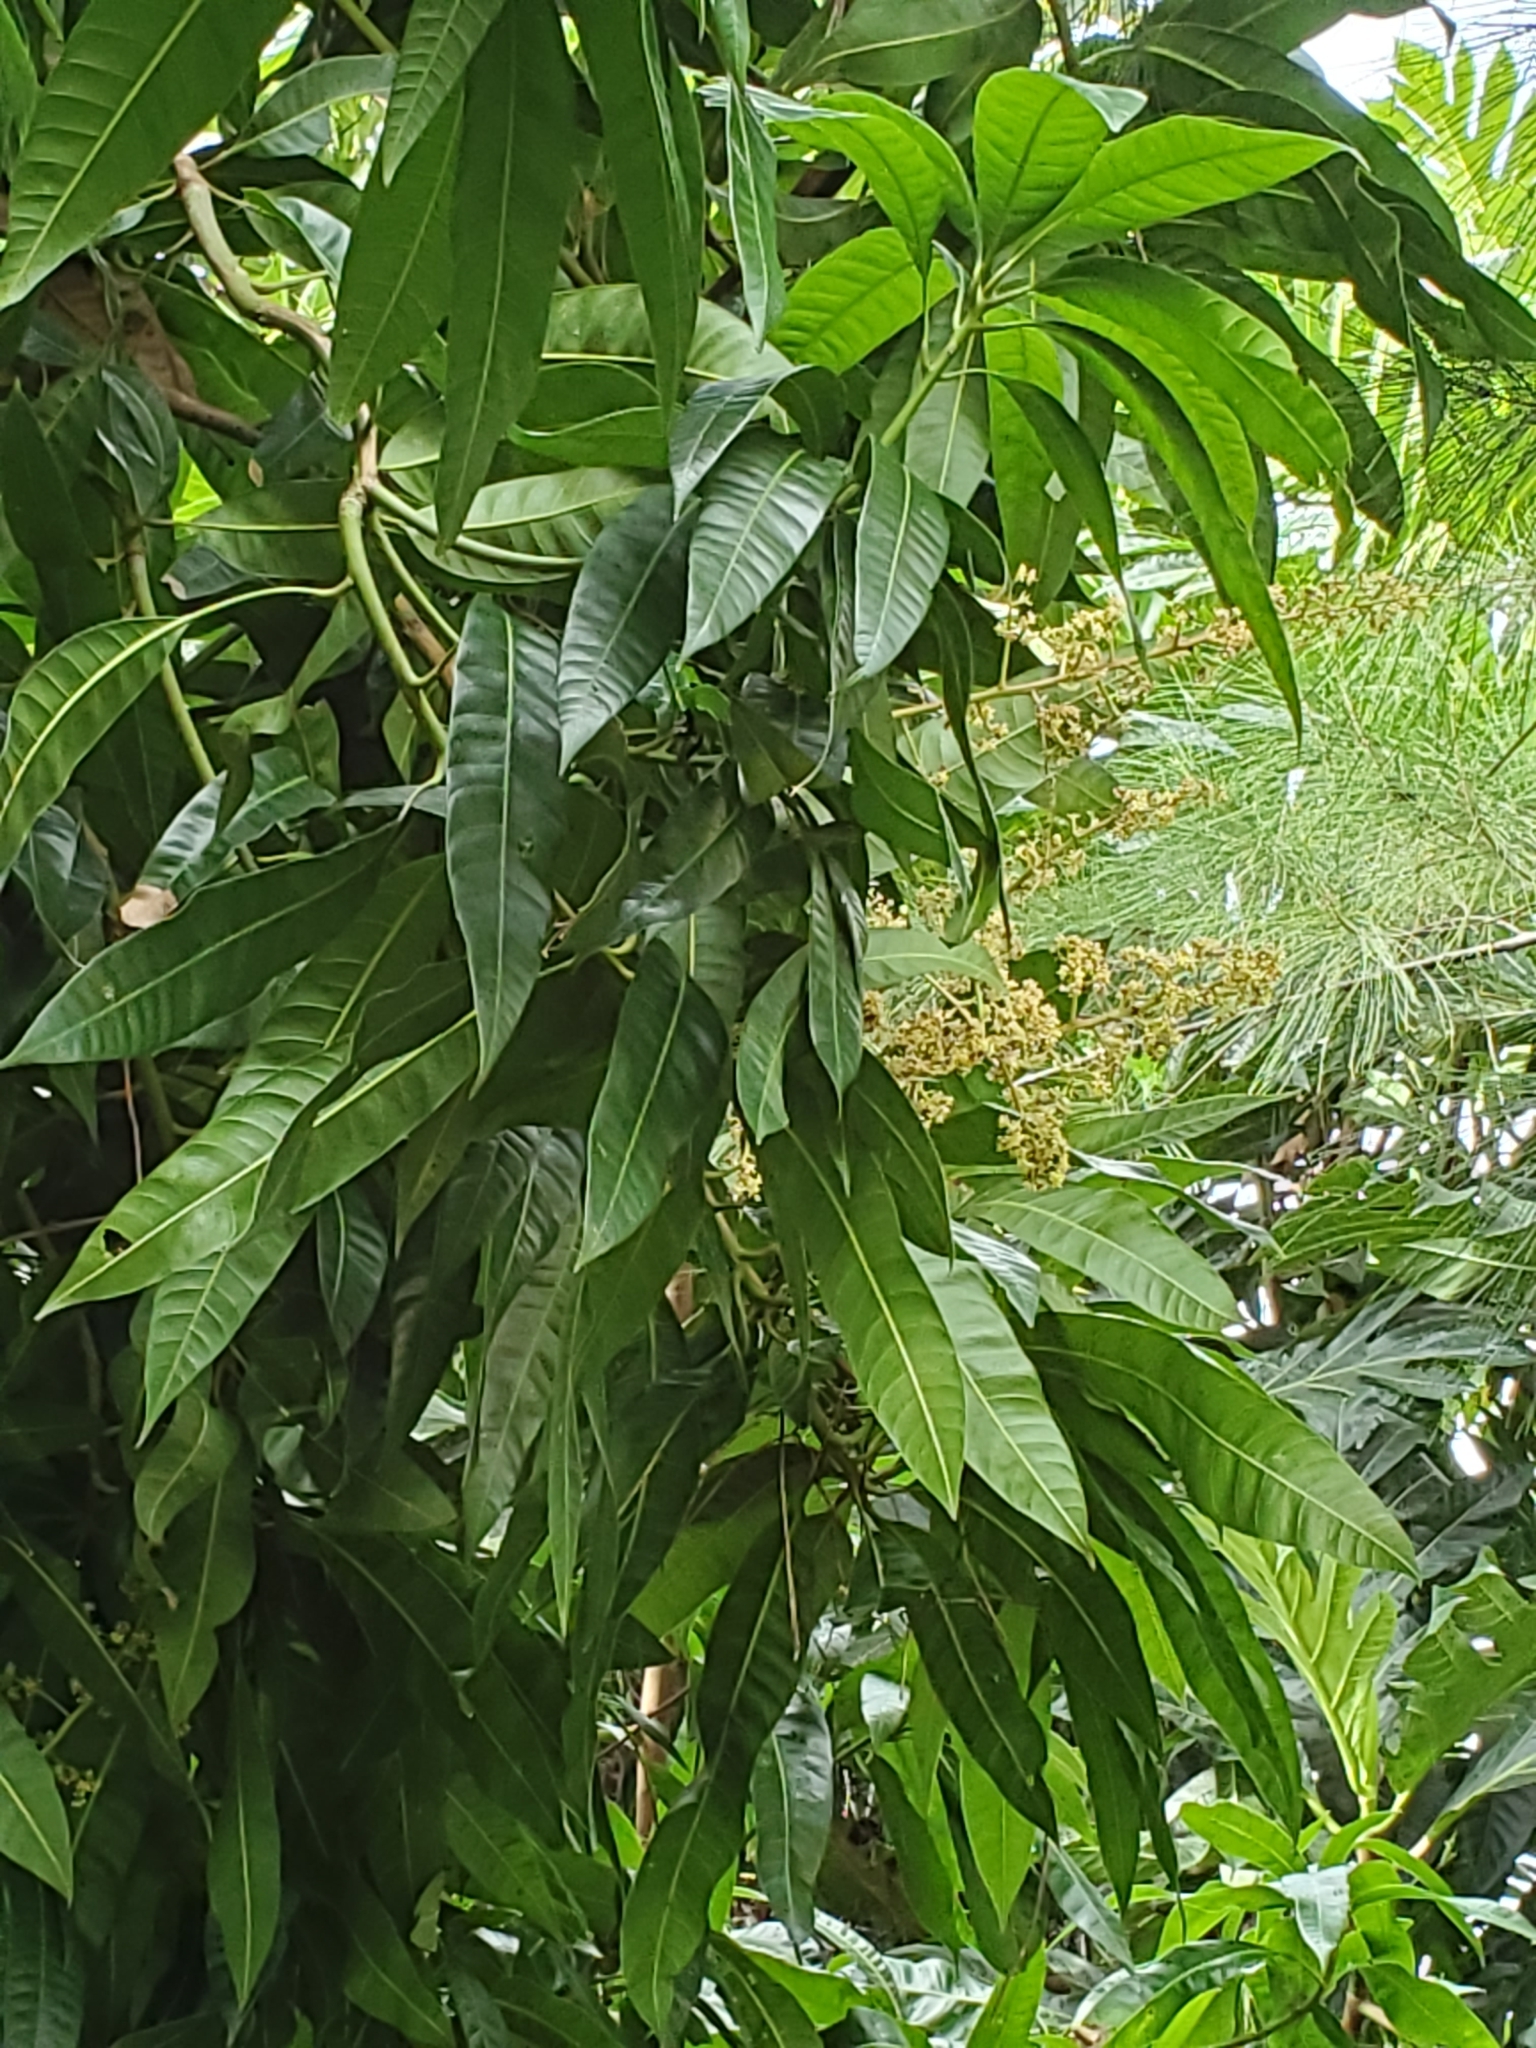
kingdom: Plantae
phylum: Tracheophyta
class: Magnoliopsida
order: Sapindales
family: Anacardiaceae
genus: Mangifera
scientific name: Mangifera indica
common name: Mango
